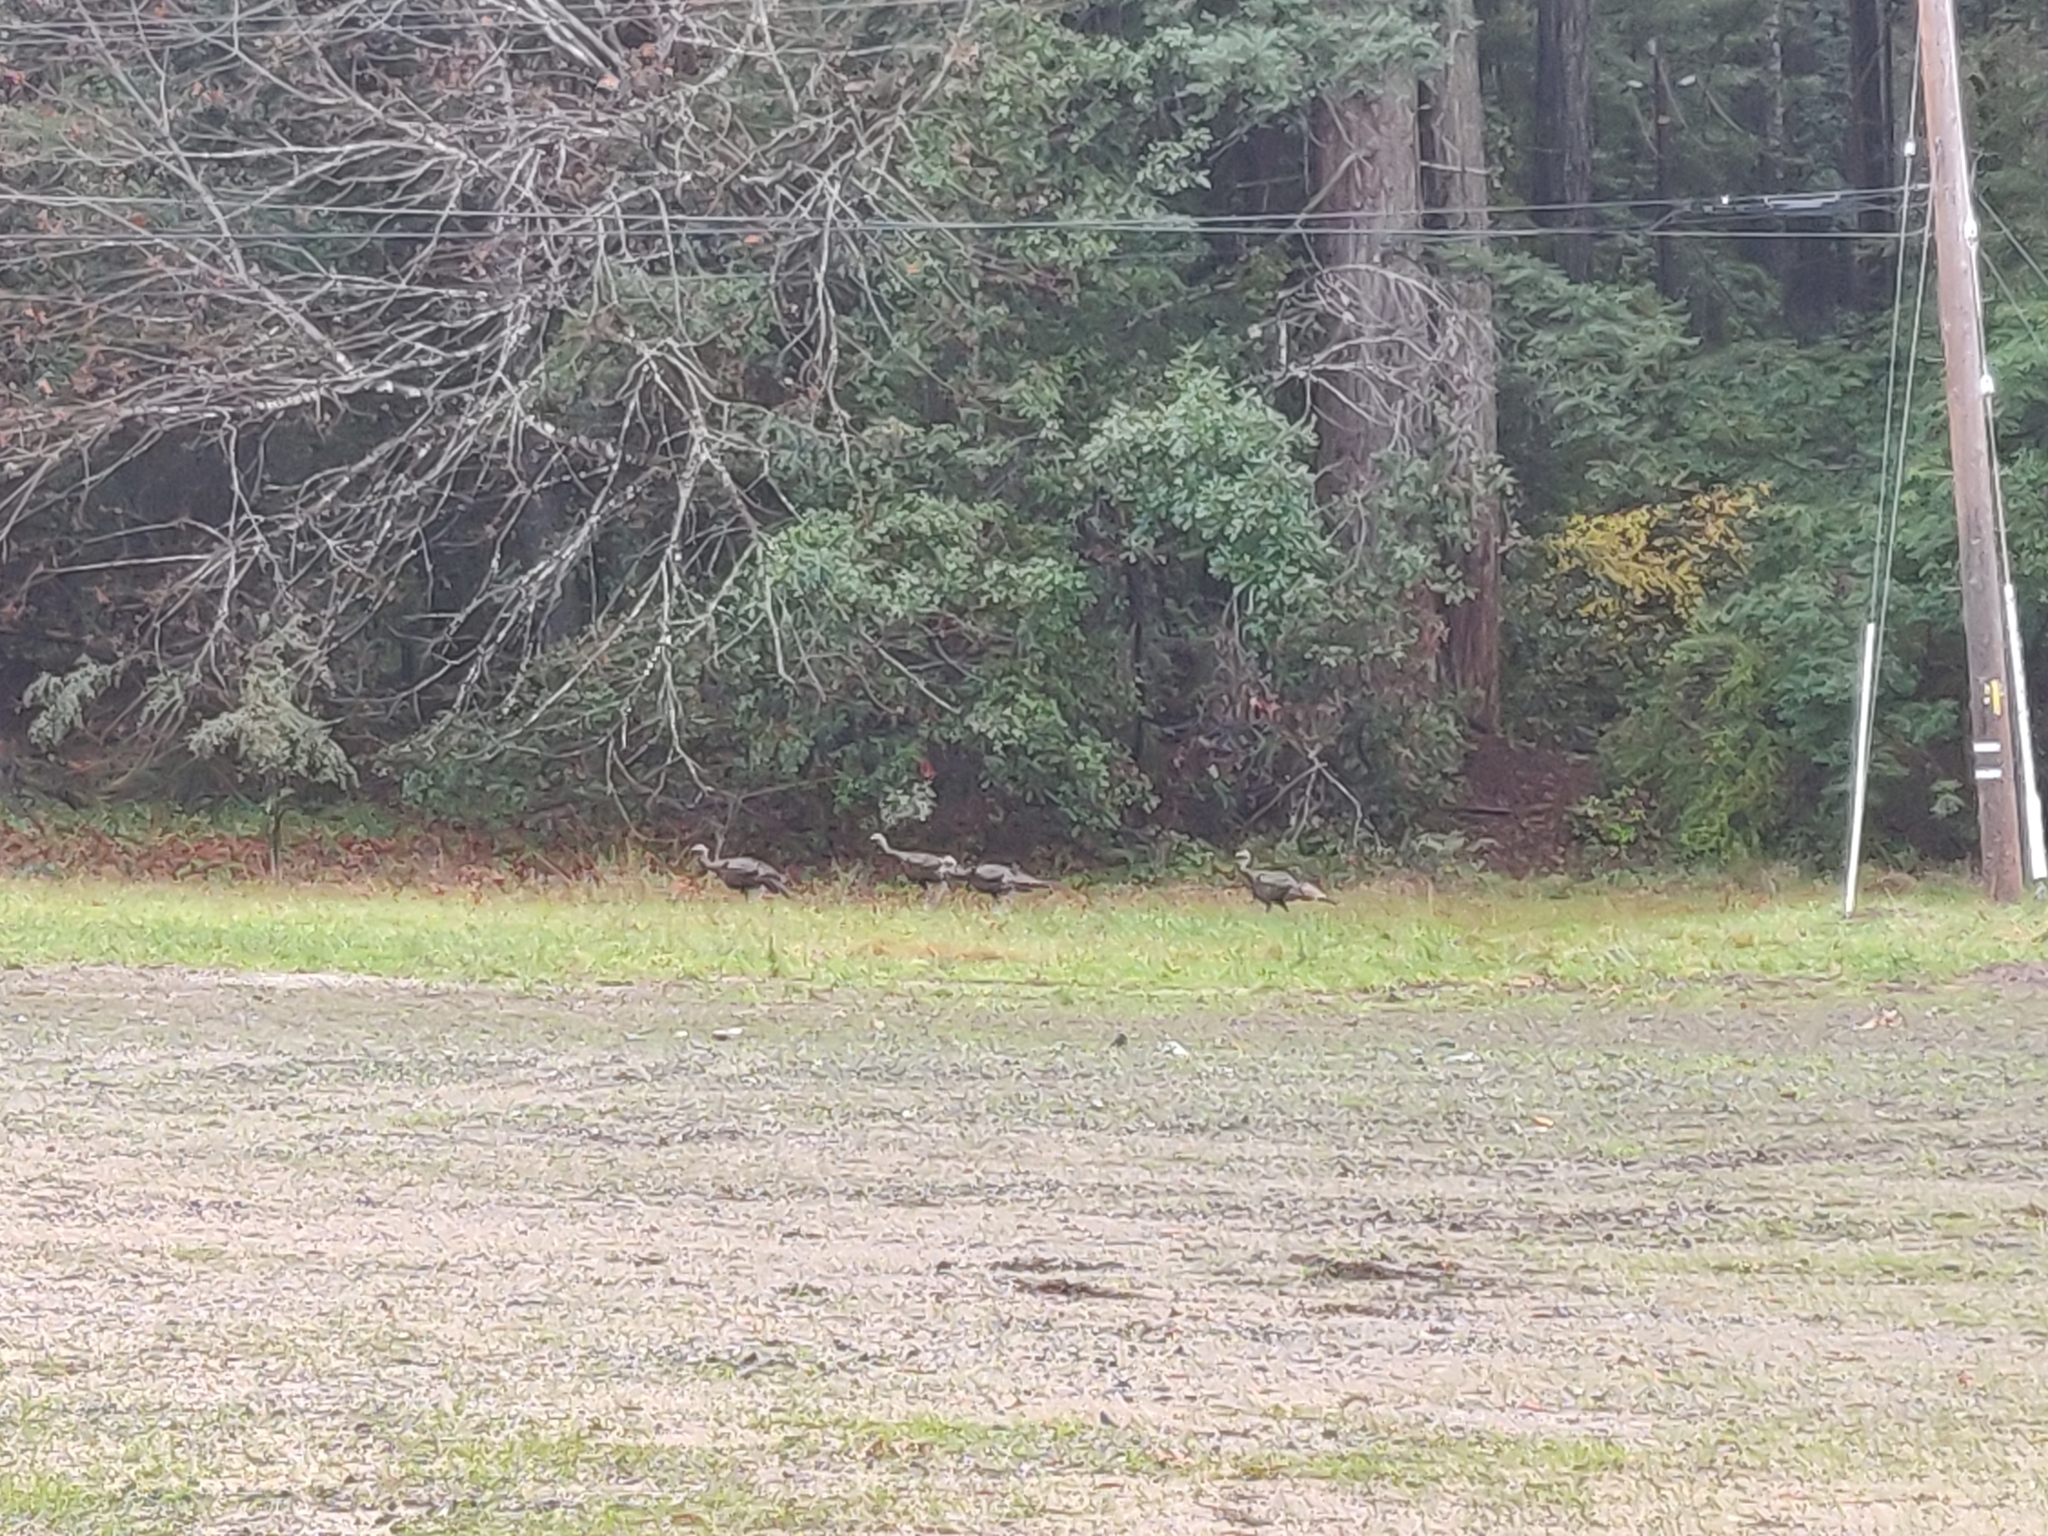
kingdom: Animalia
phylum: Chordata
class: Aves
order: Galliformes
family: Phasianidae
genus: Meleagris
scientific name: Meleagris gallopavo
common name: Wild turkey
